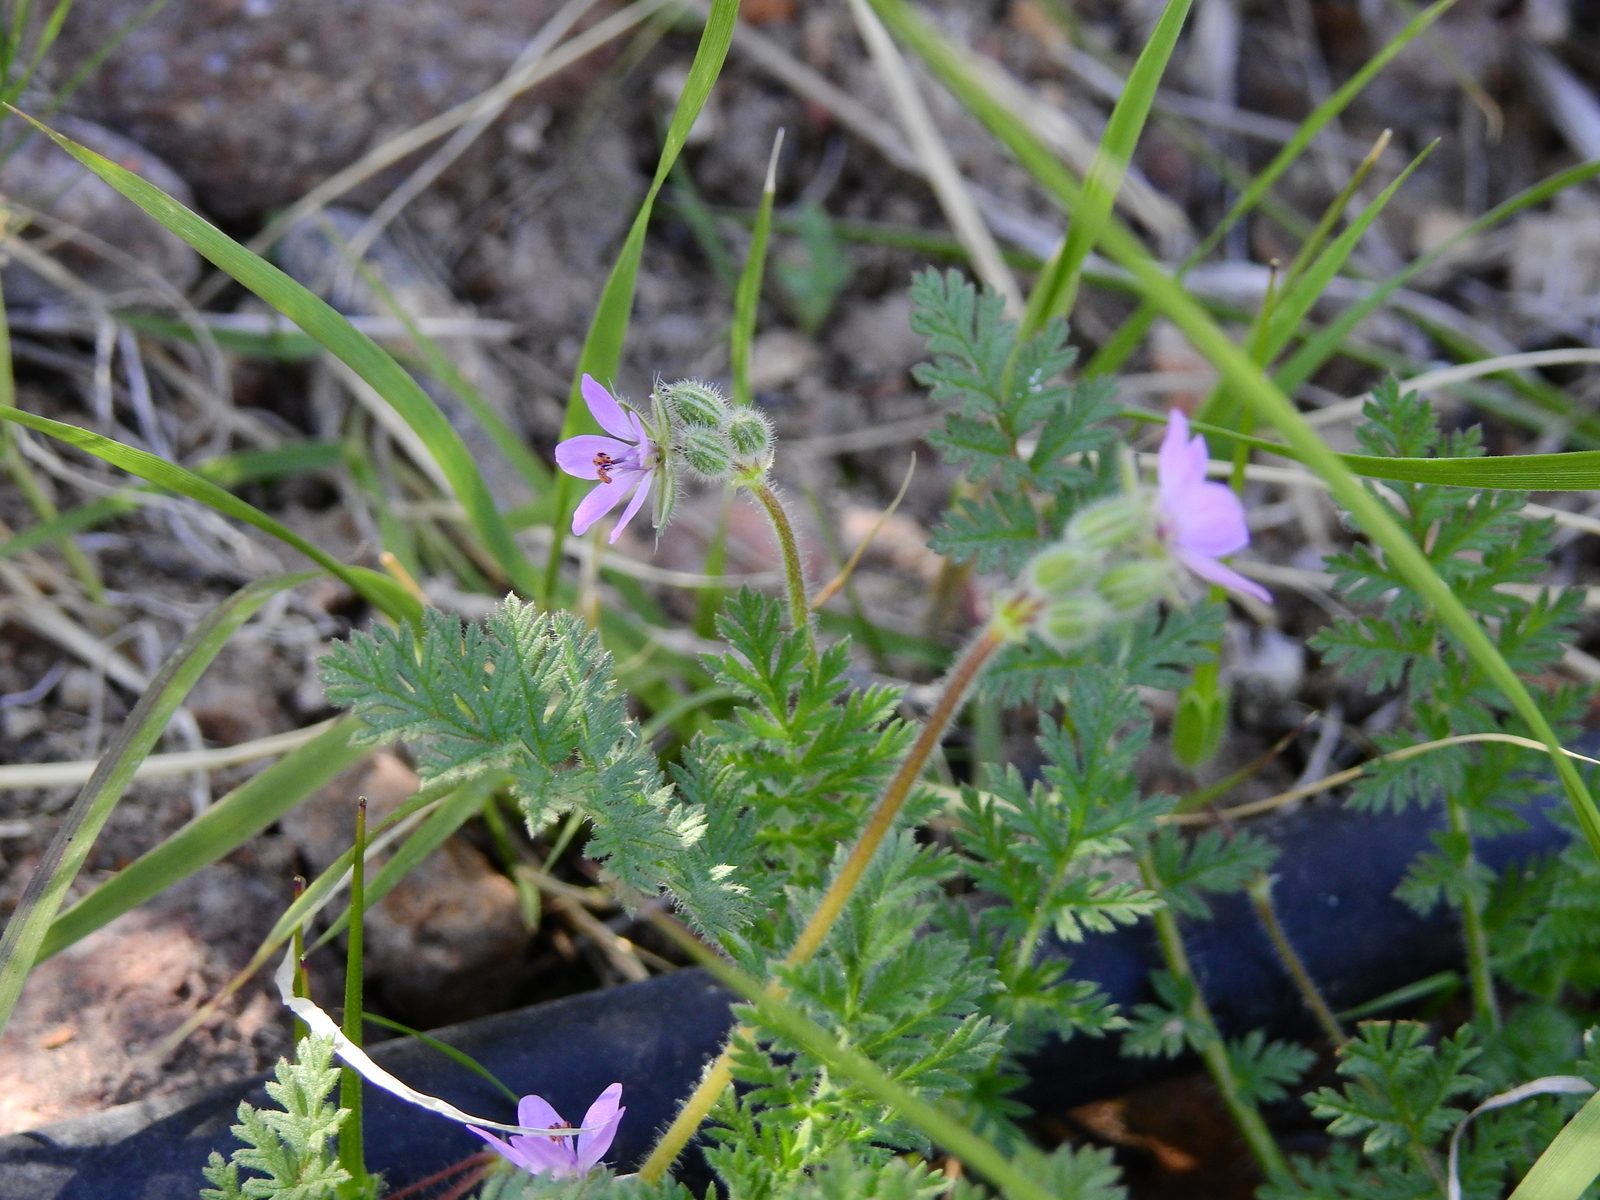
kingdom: Plantae
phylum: Tracheophyta
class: Magnoliopsida
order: Geraniales
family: Geraniaceae
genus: Erodium
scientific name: Erodium cicutarium
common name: Common stork's-bill
